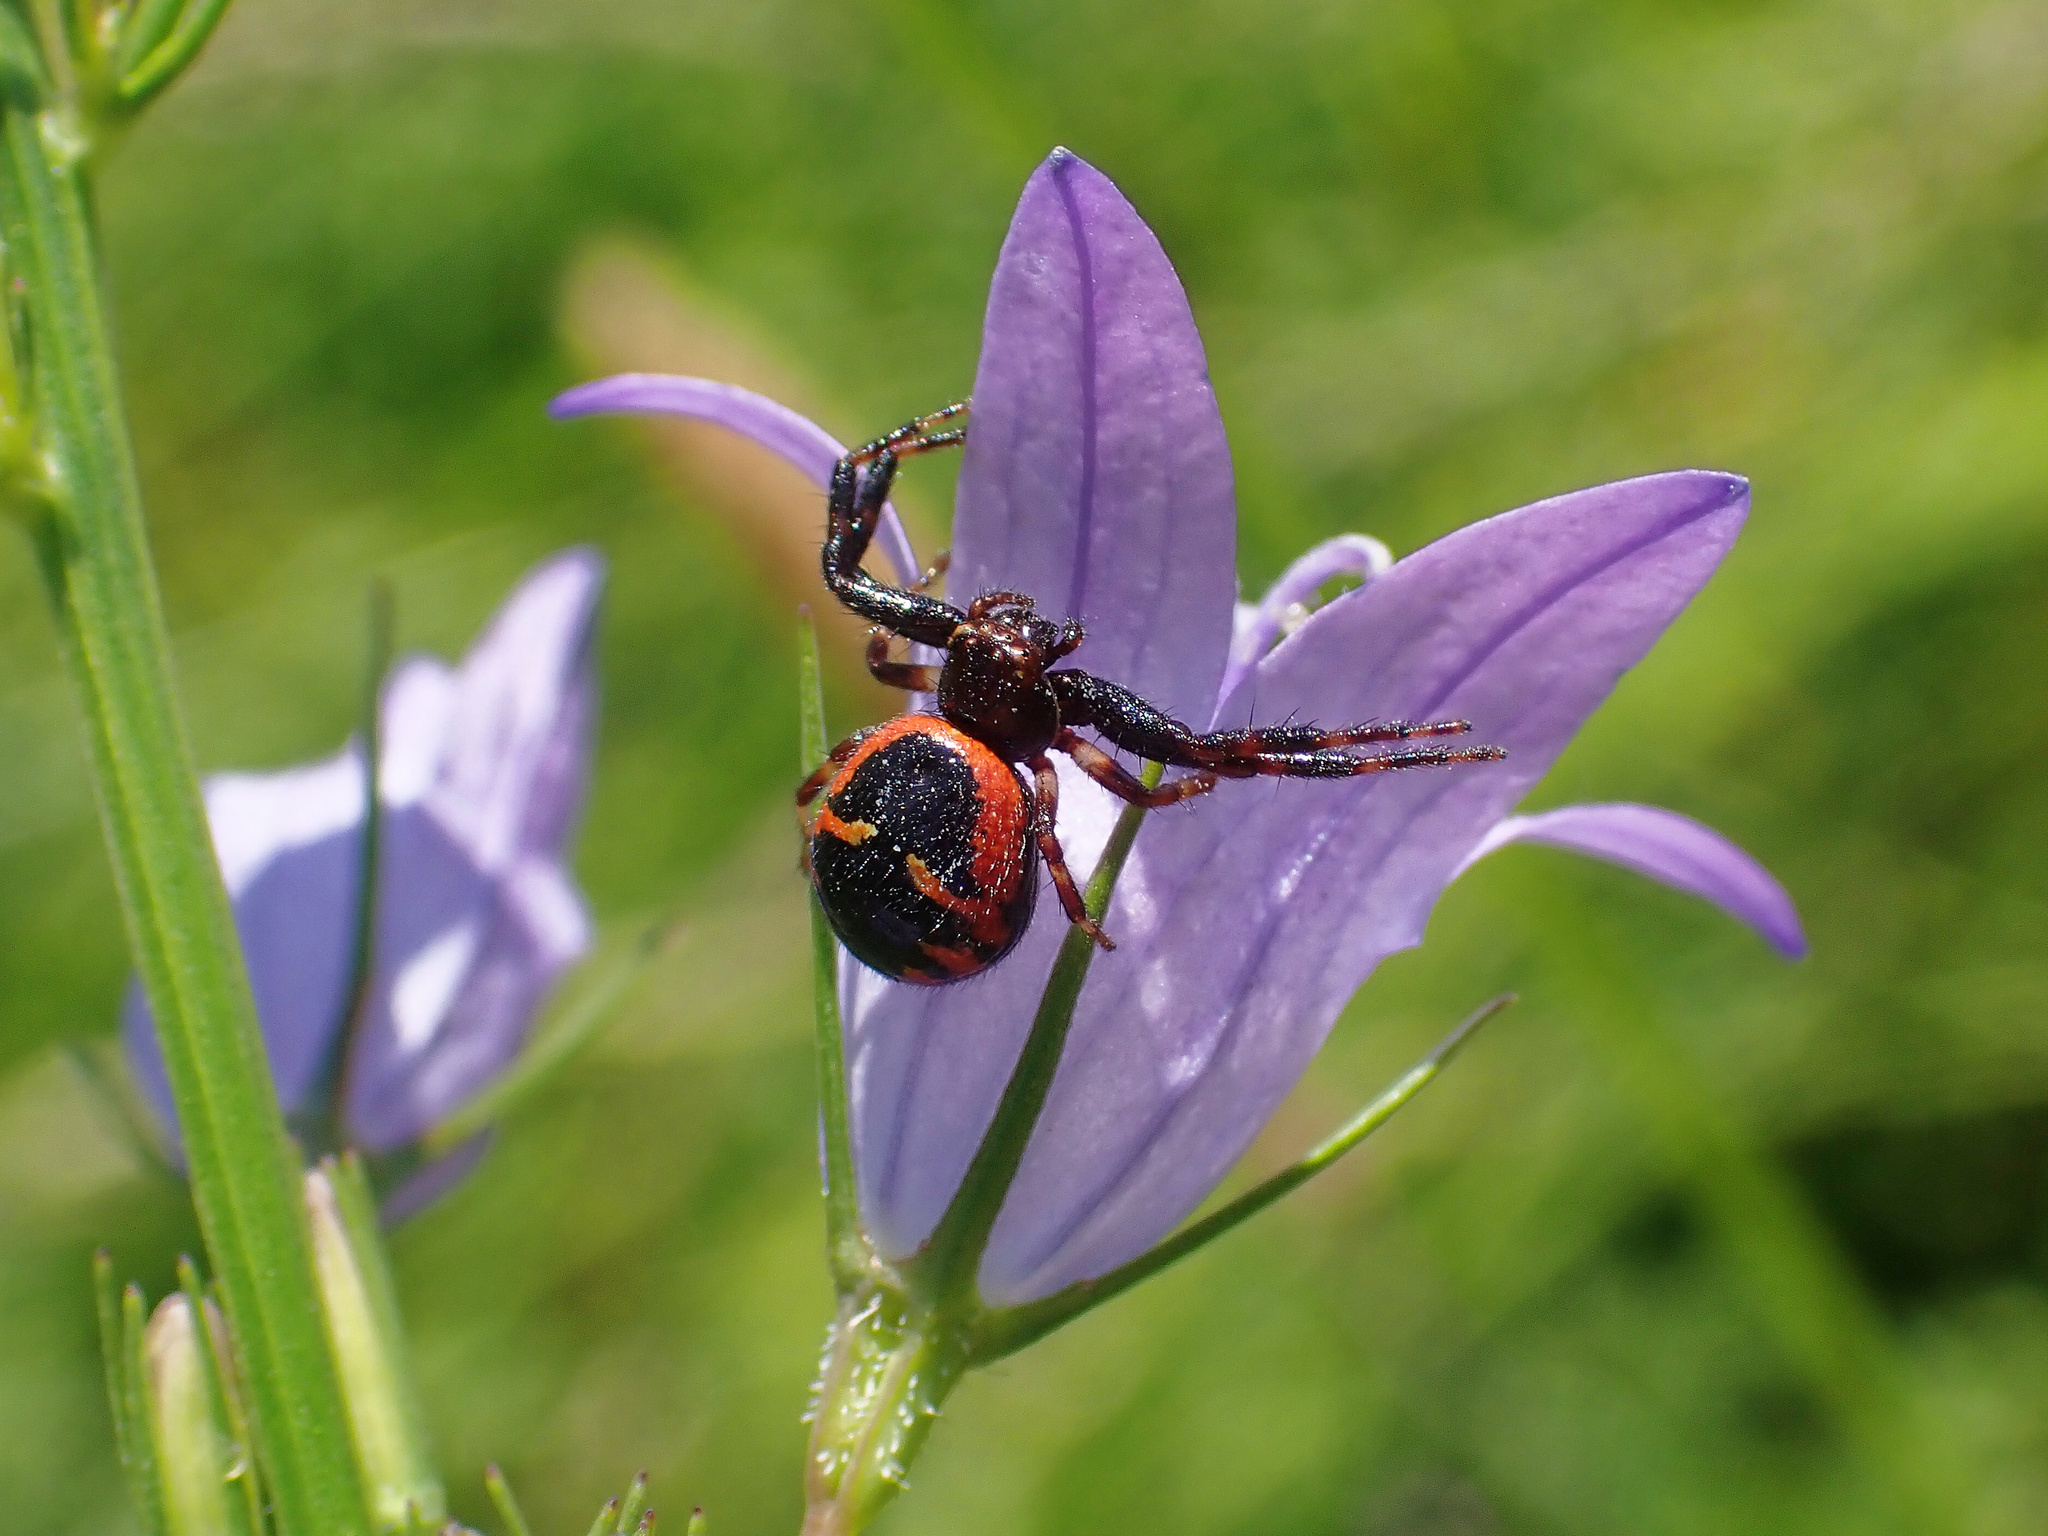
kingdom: Animalia
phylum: Arthropoda
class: Arachnida
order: Araneae
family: Thomisidae
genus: Synema
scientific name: Synema globosum
